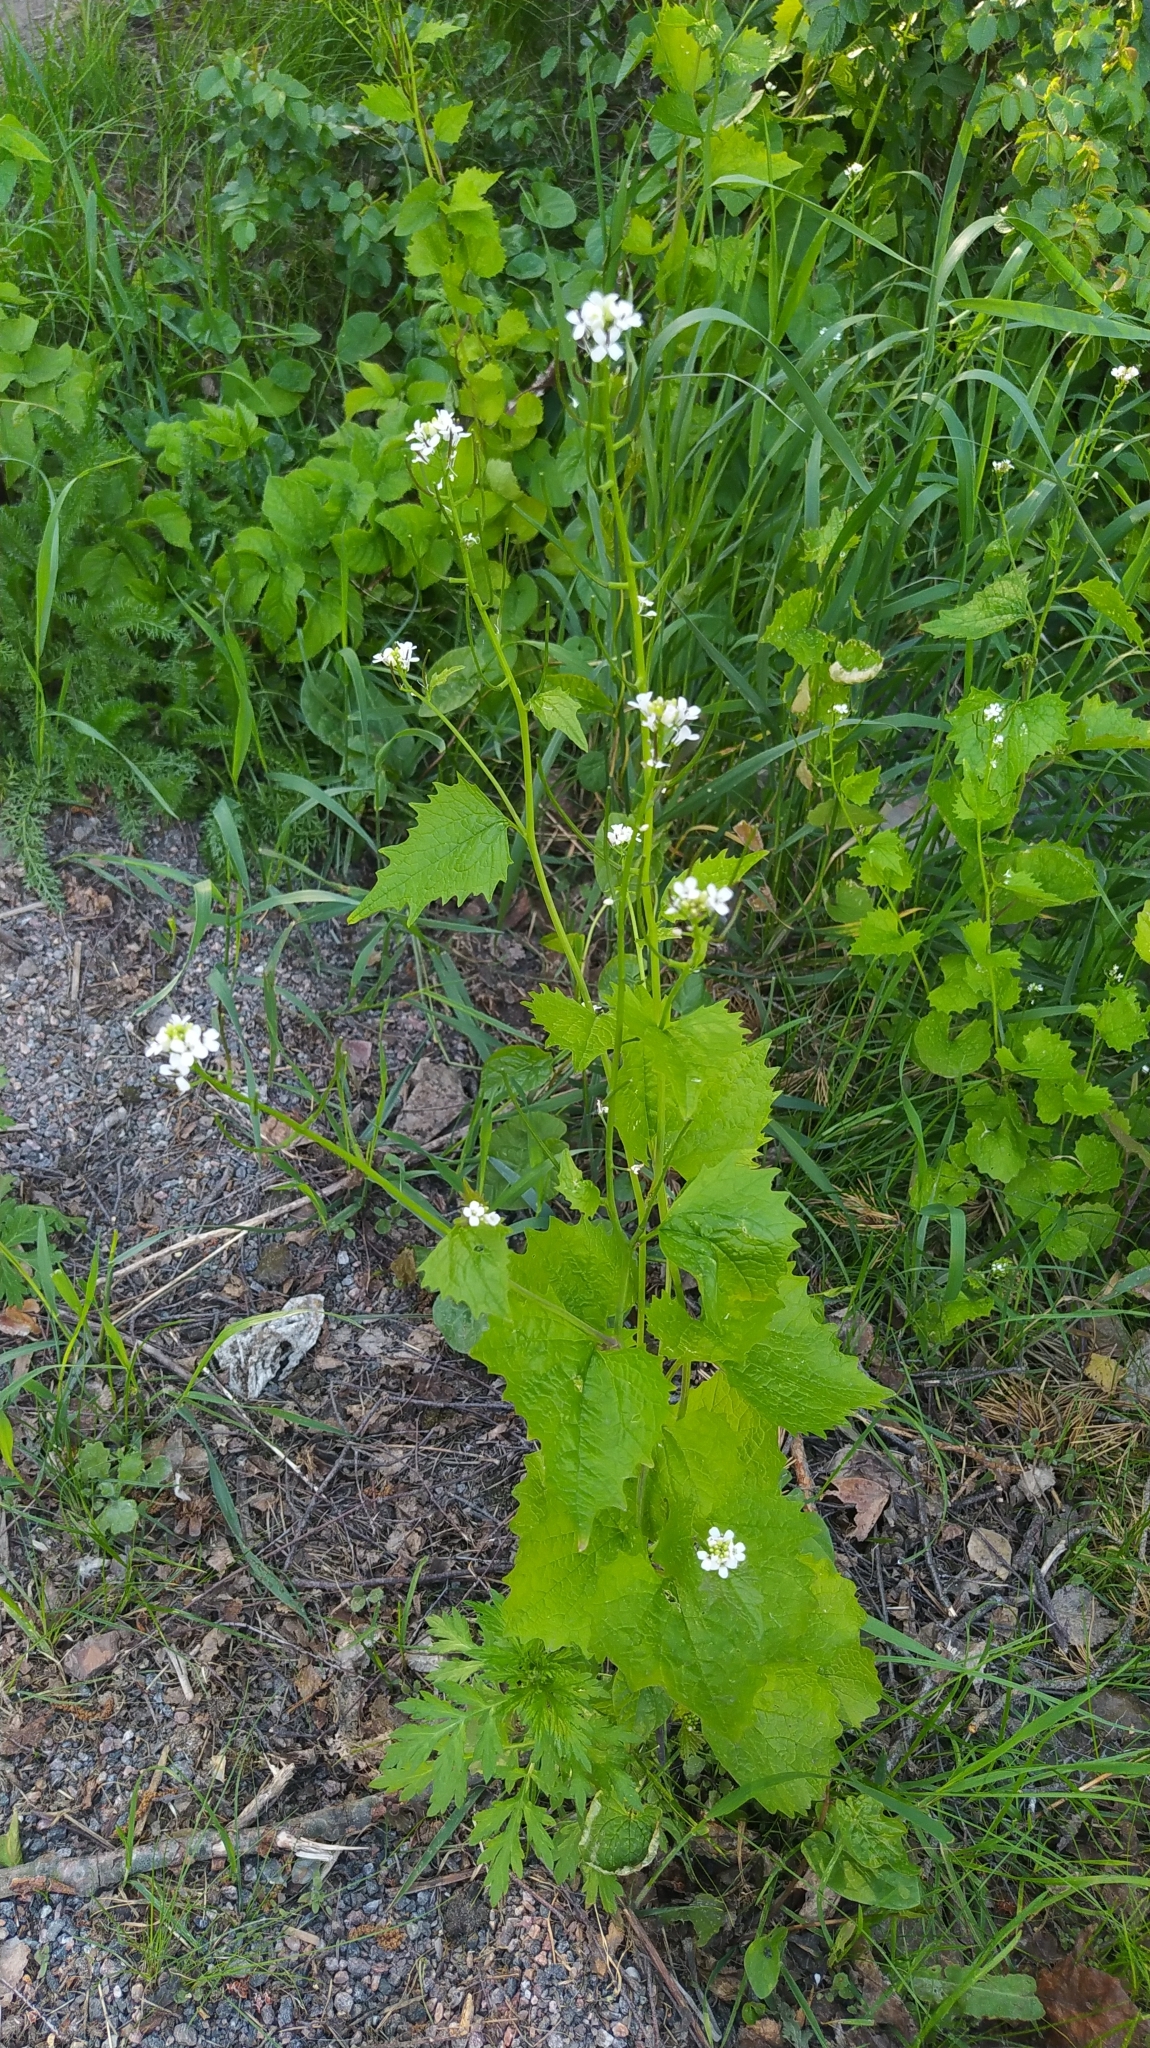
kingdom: Plantae
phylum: Tracheophyta
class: Magnoliopsida
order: Brassicales
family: Brassicaceae
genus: Alliaria
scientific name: Alliaria petiolata
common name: Garlic mustard
